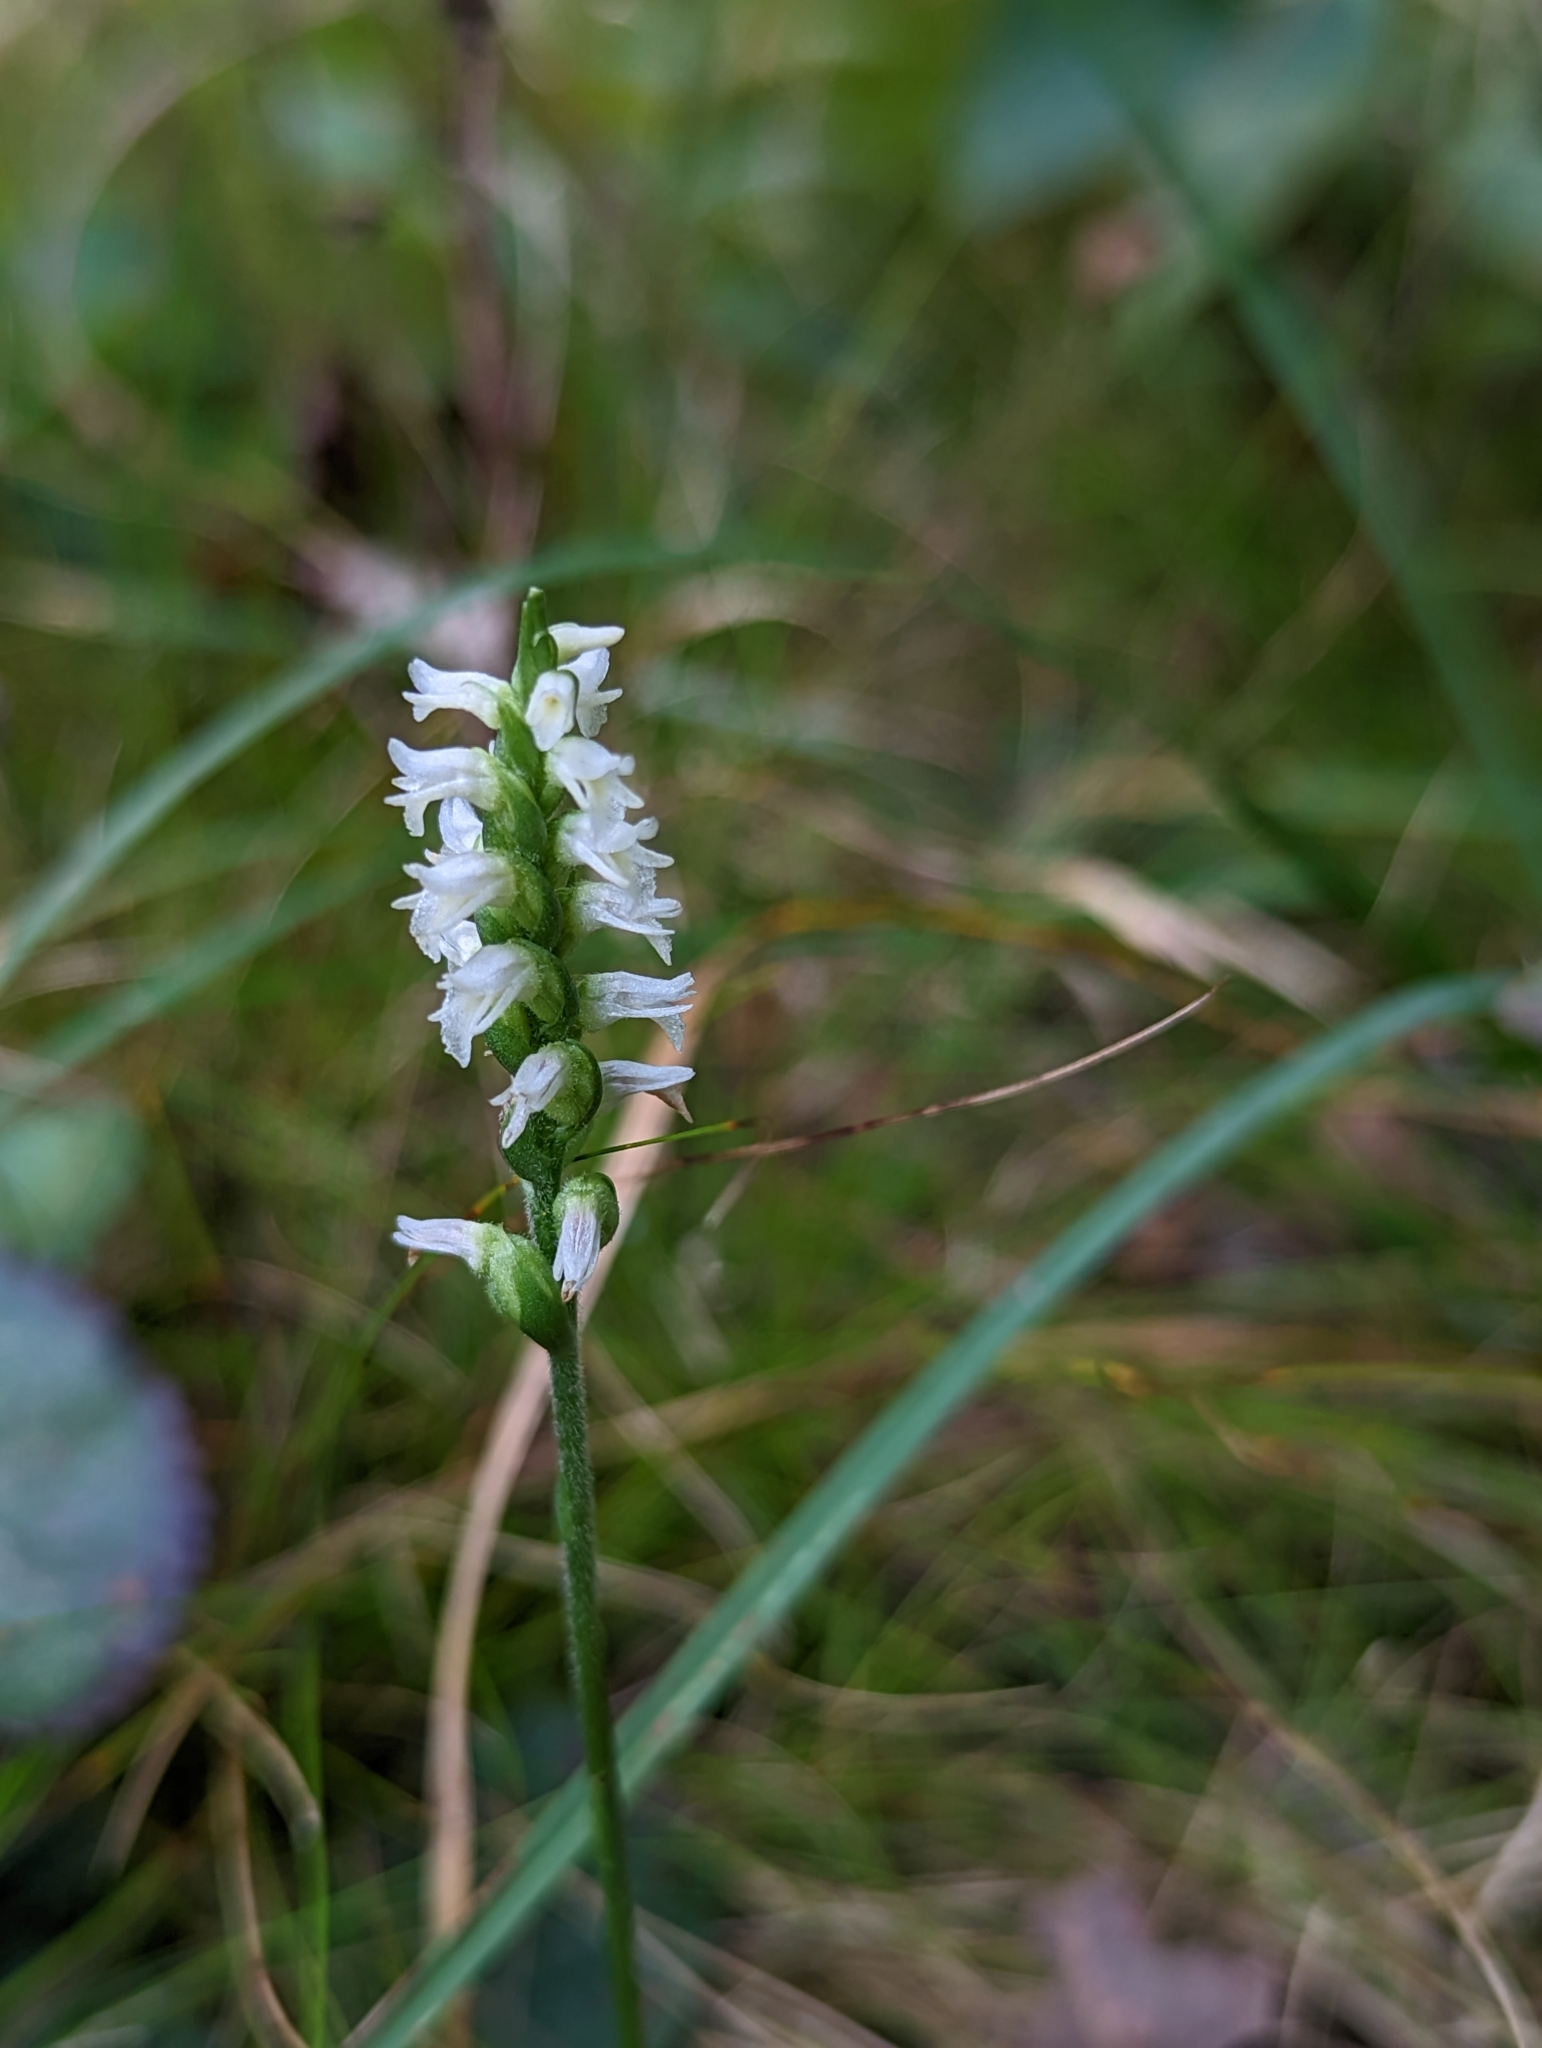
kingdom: Plantae
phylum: Tracheophyta
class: Liliopsida
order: Asparagales
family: Orchidaceae
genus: Spiranthes
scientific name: Spiranthes ovalis
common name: October ladies'-tresses
